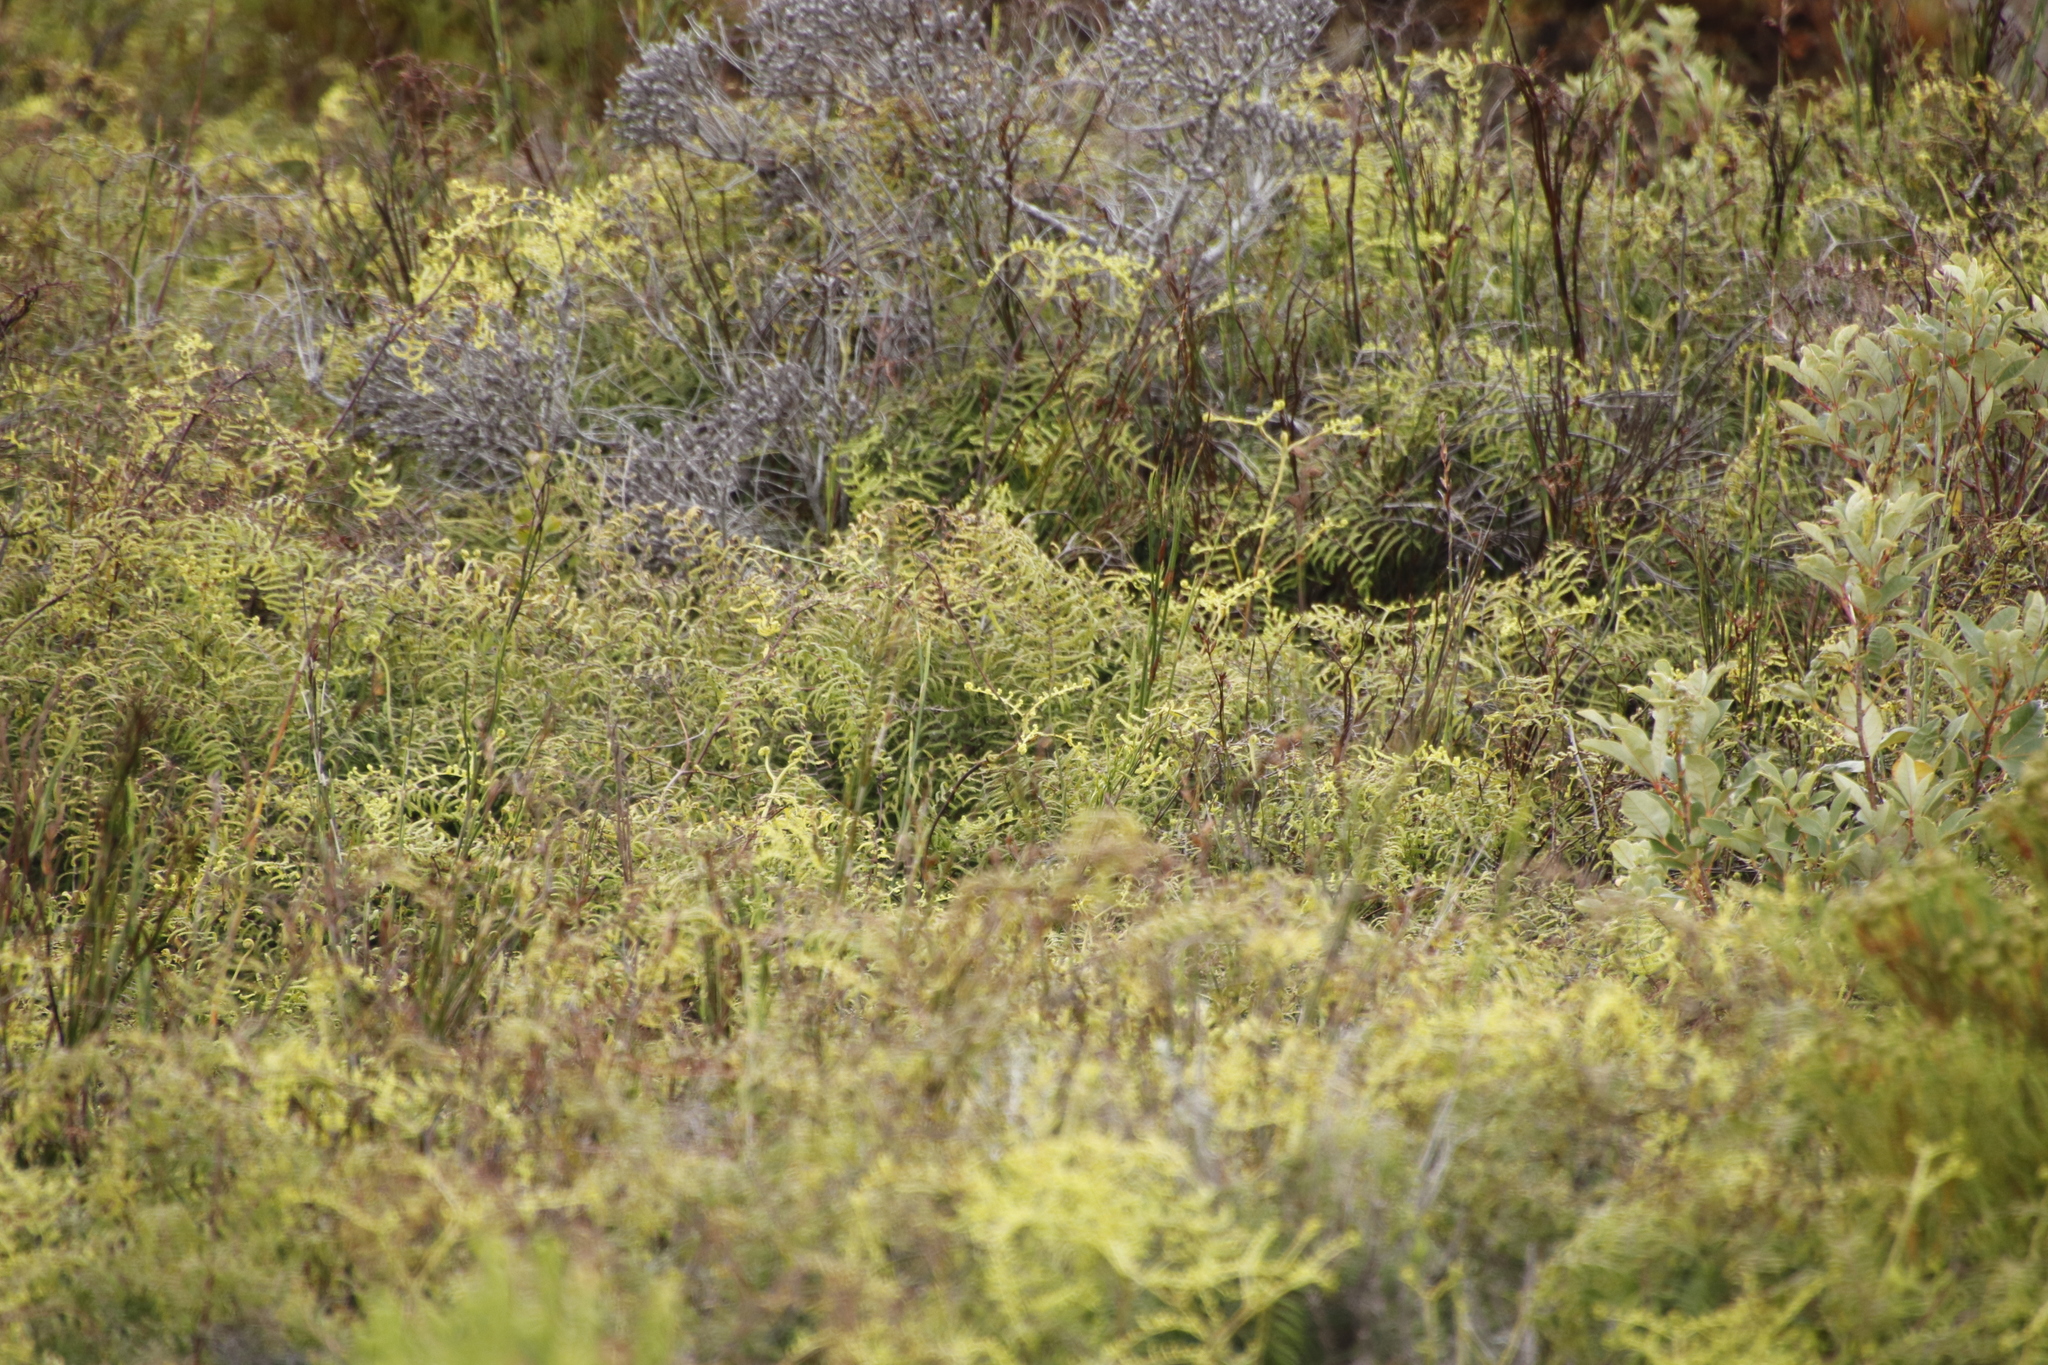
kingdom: Plantae
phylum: Tracheophyta
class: Polypodiopsida
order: Gleicheniales
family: Gleicheniaceae
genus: Gleichenia
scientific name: Gleichenia polypodioides
